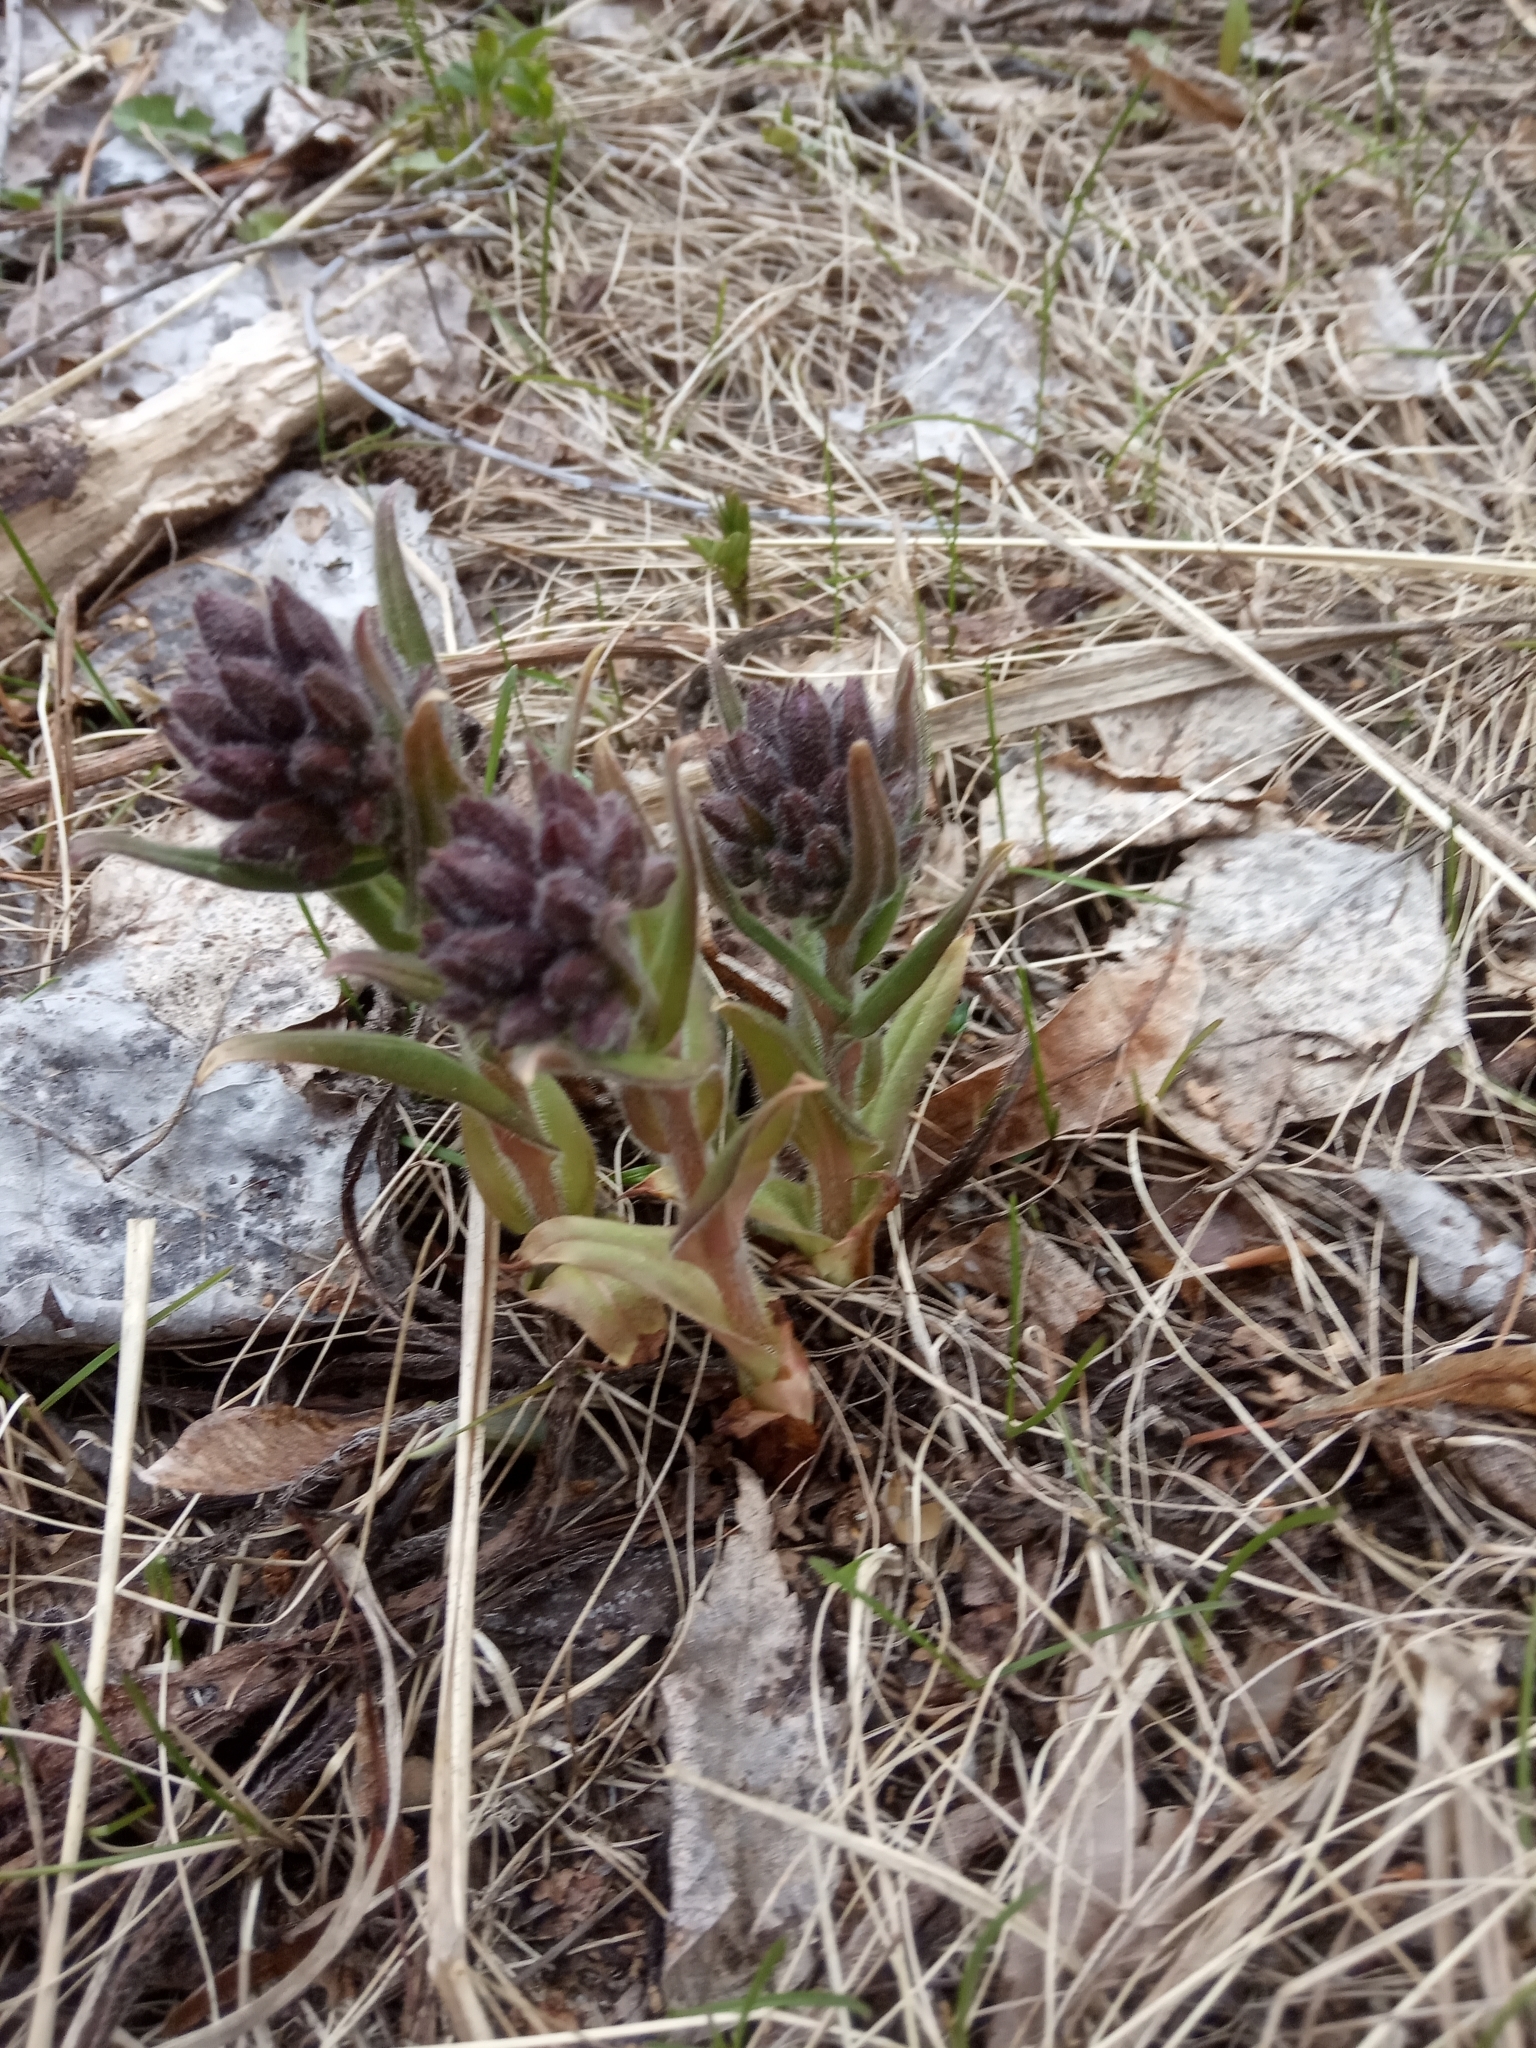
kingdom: Plantae
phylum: Tracheophyta
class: Magnoliopsida
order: Boraginales
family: Boraginaceae
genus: Pulmonaria
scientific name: Pulmonaria obscura
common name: Suffolk lungwort
